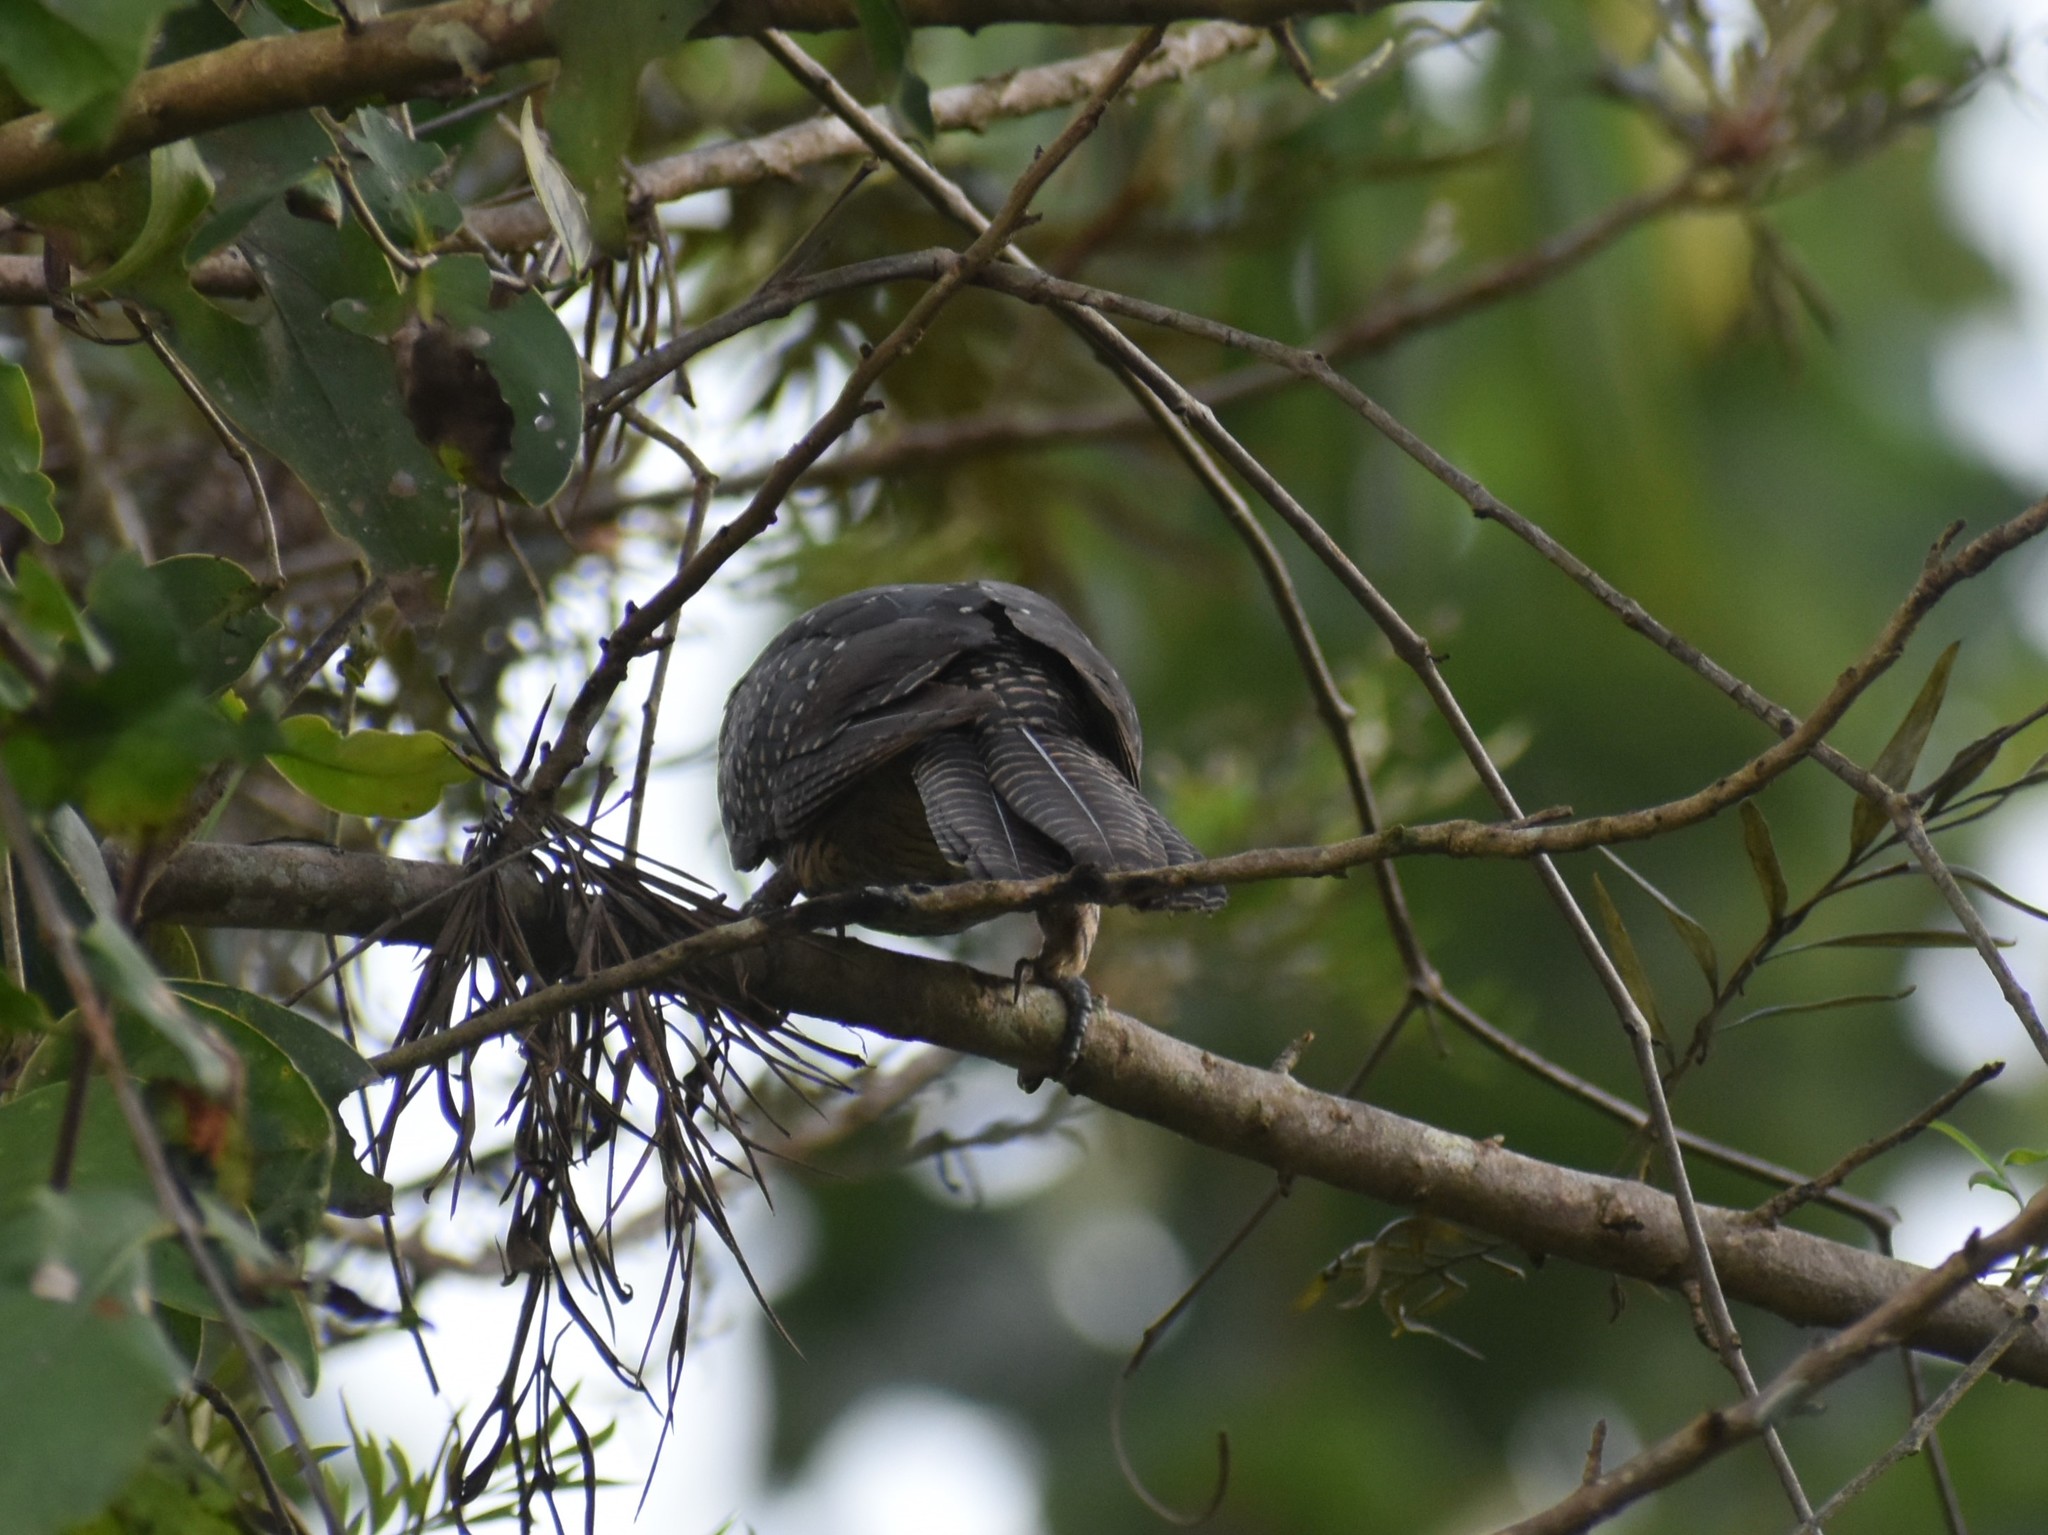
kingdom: Animalia
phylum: Chordata
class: Aves
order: Cuculiformes
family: Cuculidae
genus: Eudynamys
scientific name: Eudynamys scolopaceus
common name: Asian koel
